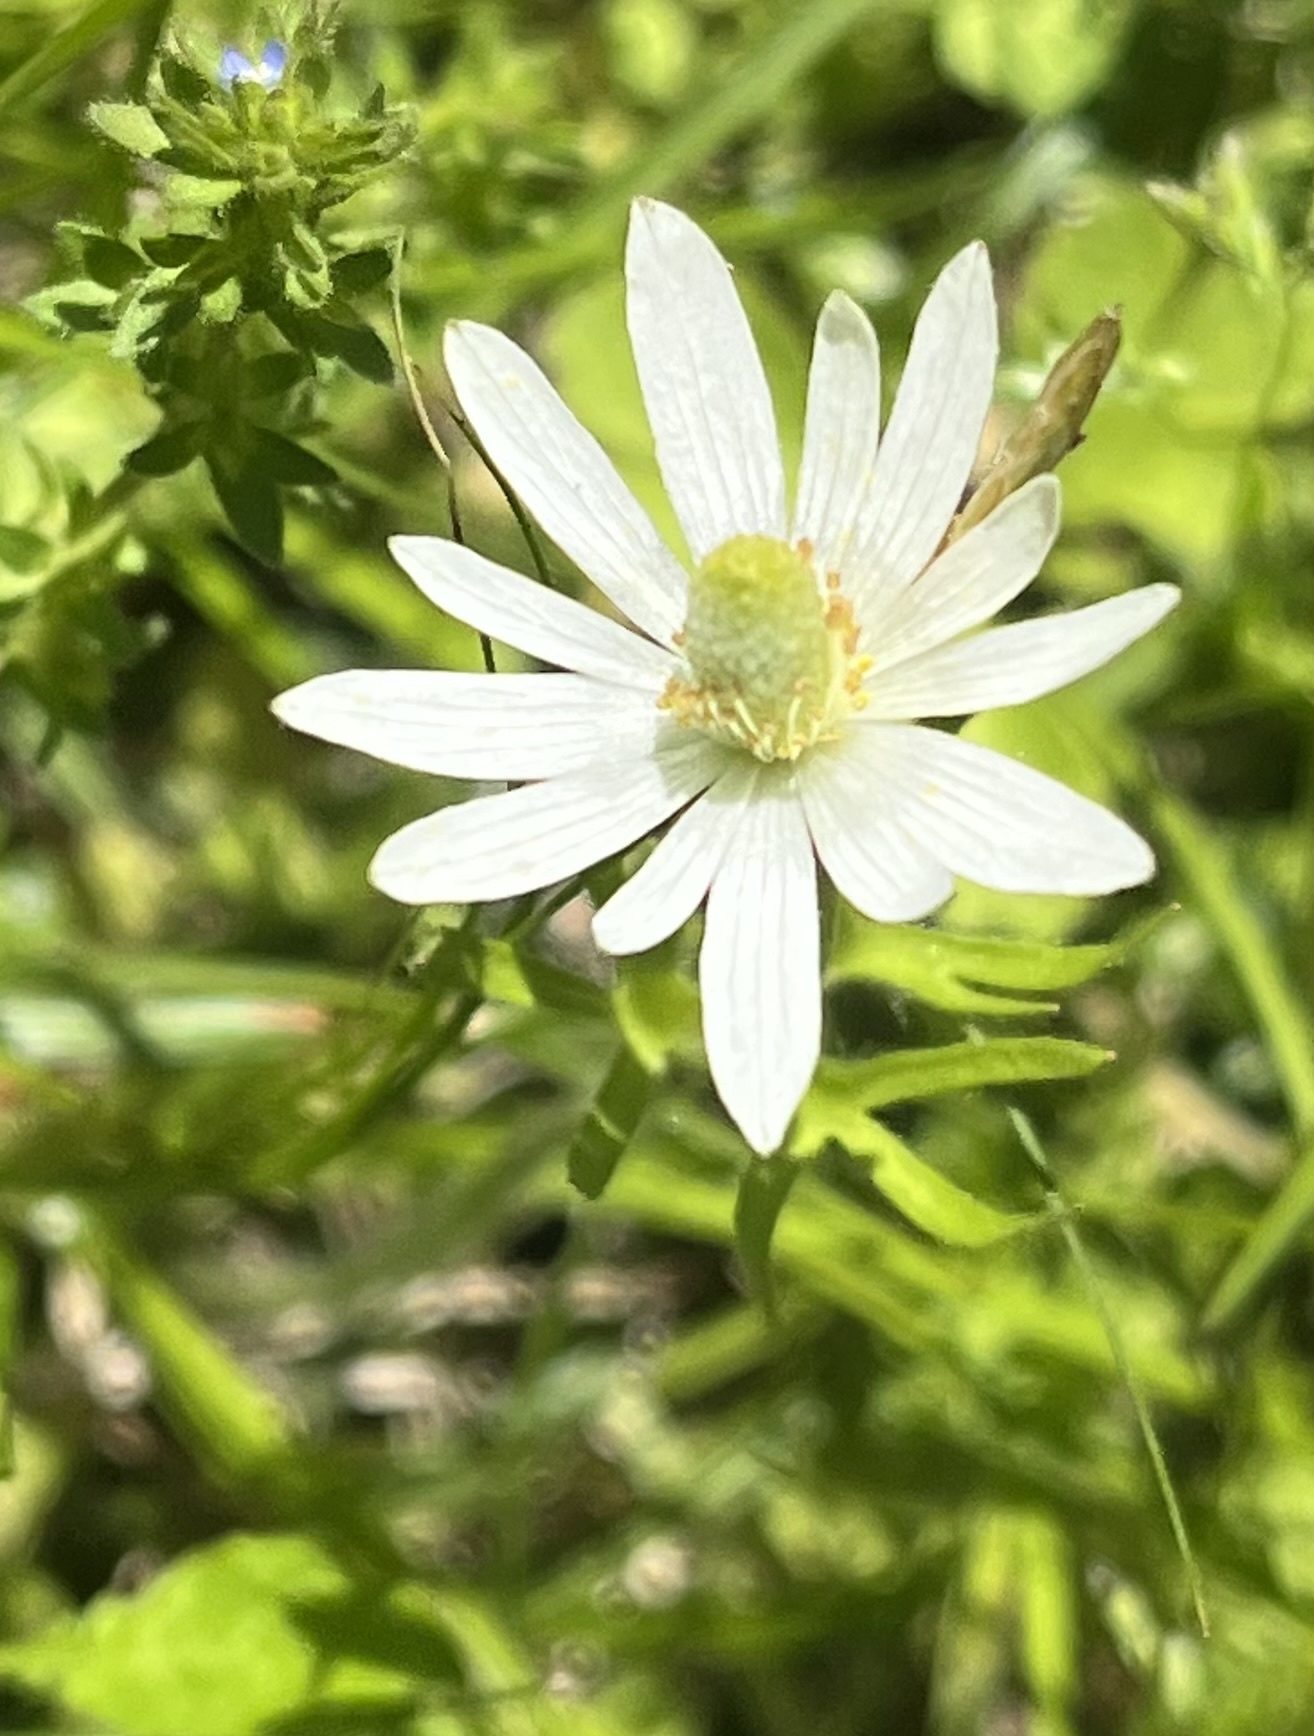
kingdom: Plantae
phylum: Tracheophyta
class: Magnoliopsida
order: Ranunculales
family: Ranunculaceae
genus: Anemone
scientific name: Anemone berlandieri
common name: Ten-petal anemone
